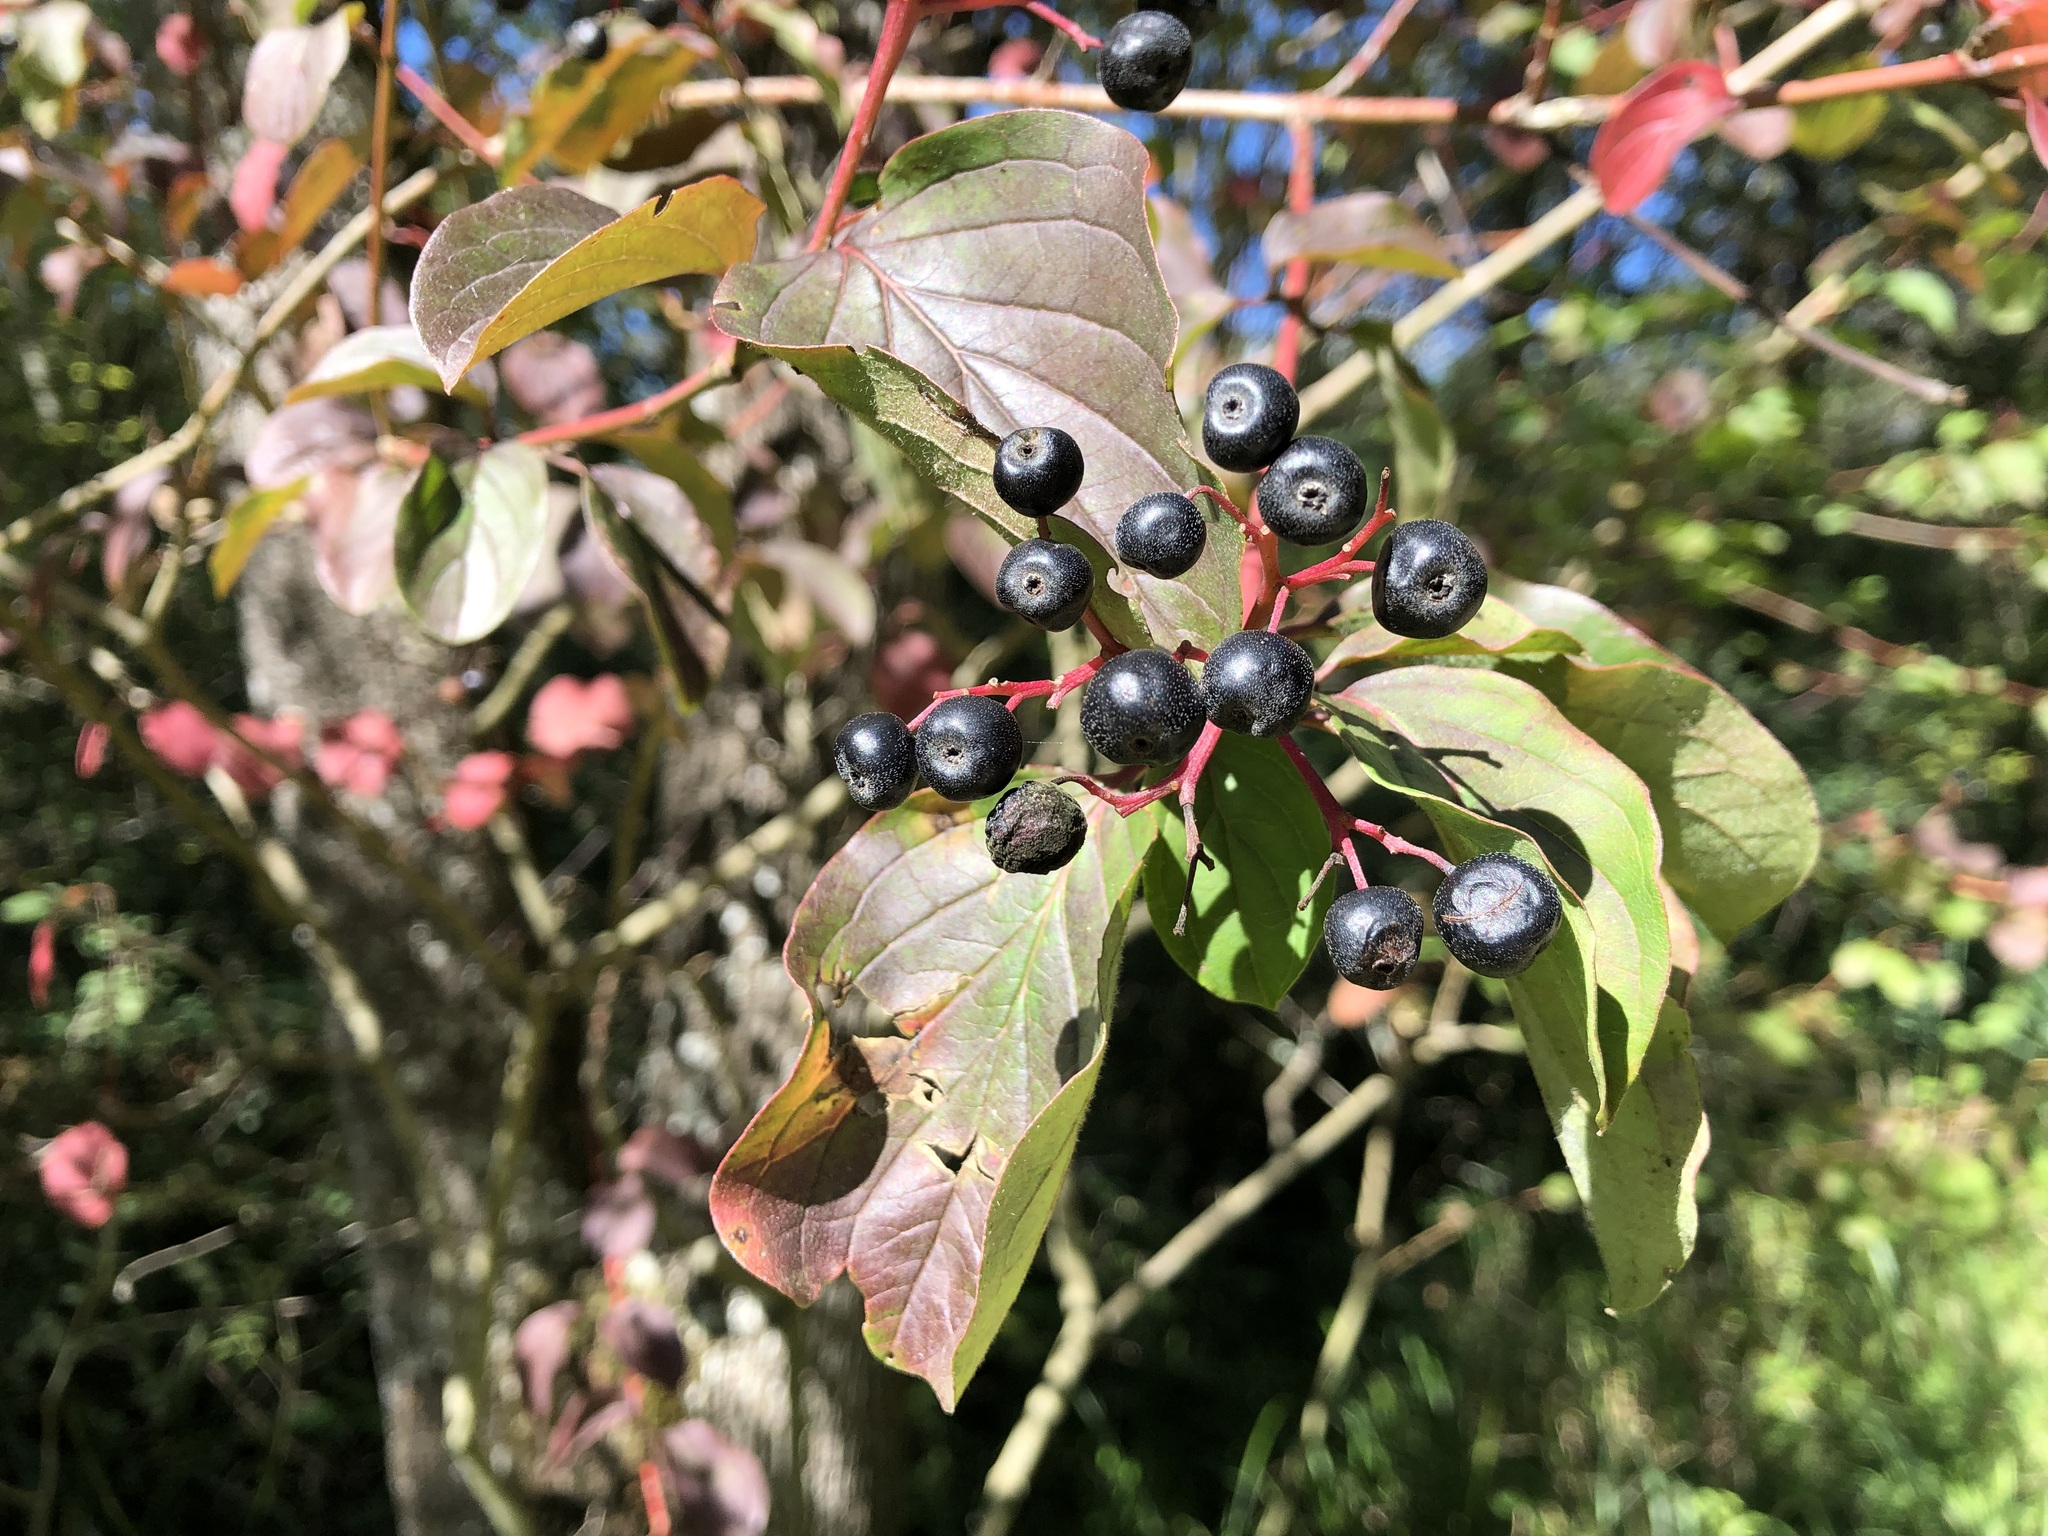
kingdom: Plantae
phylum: Tracheophyta
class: Magnoliopsida
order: Cornales
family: Cornaceae
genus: Cornus
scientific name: Cornus sanguinea
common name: Dogwood
